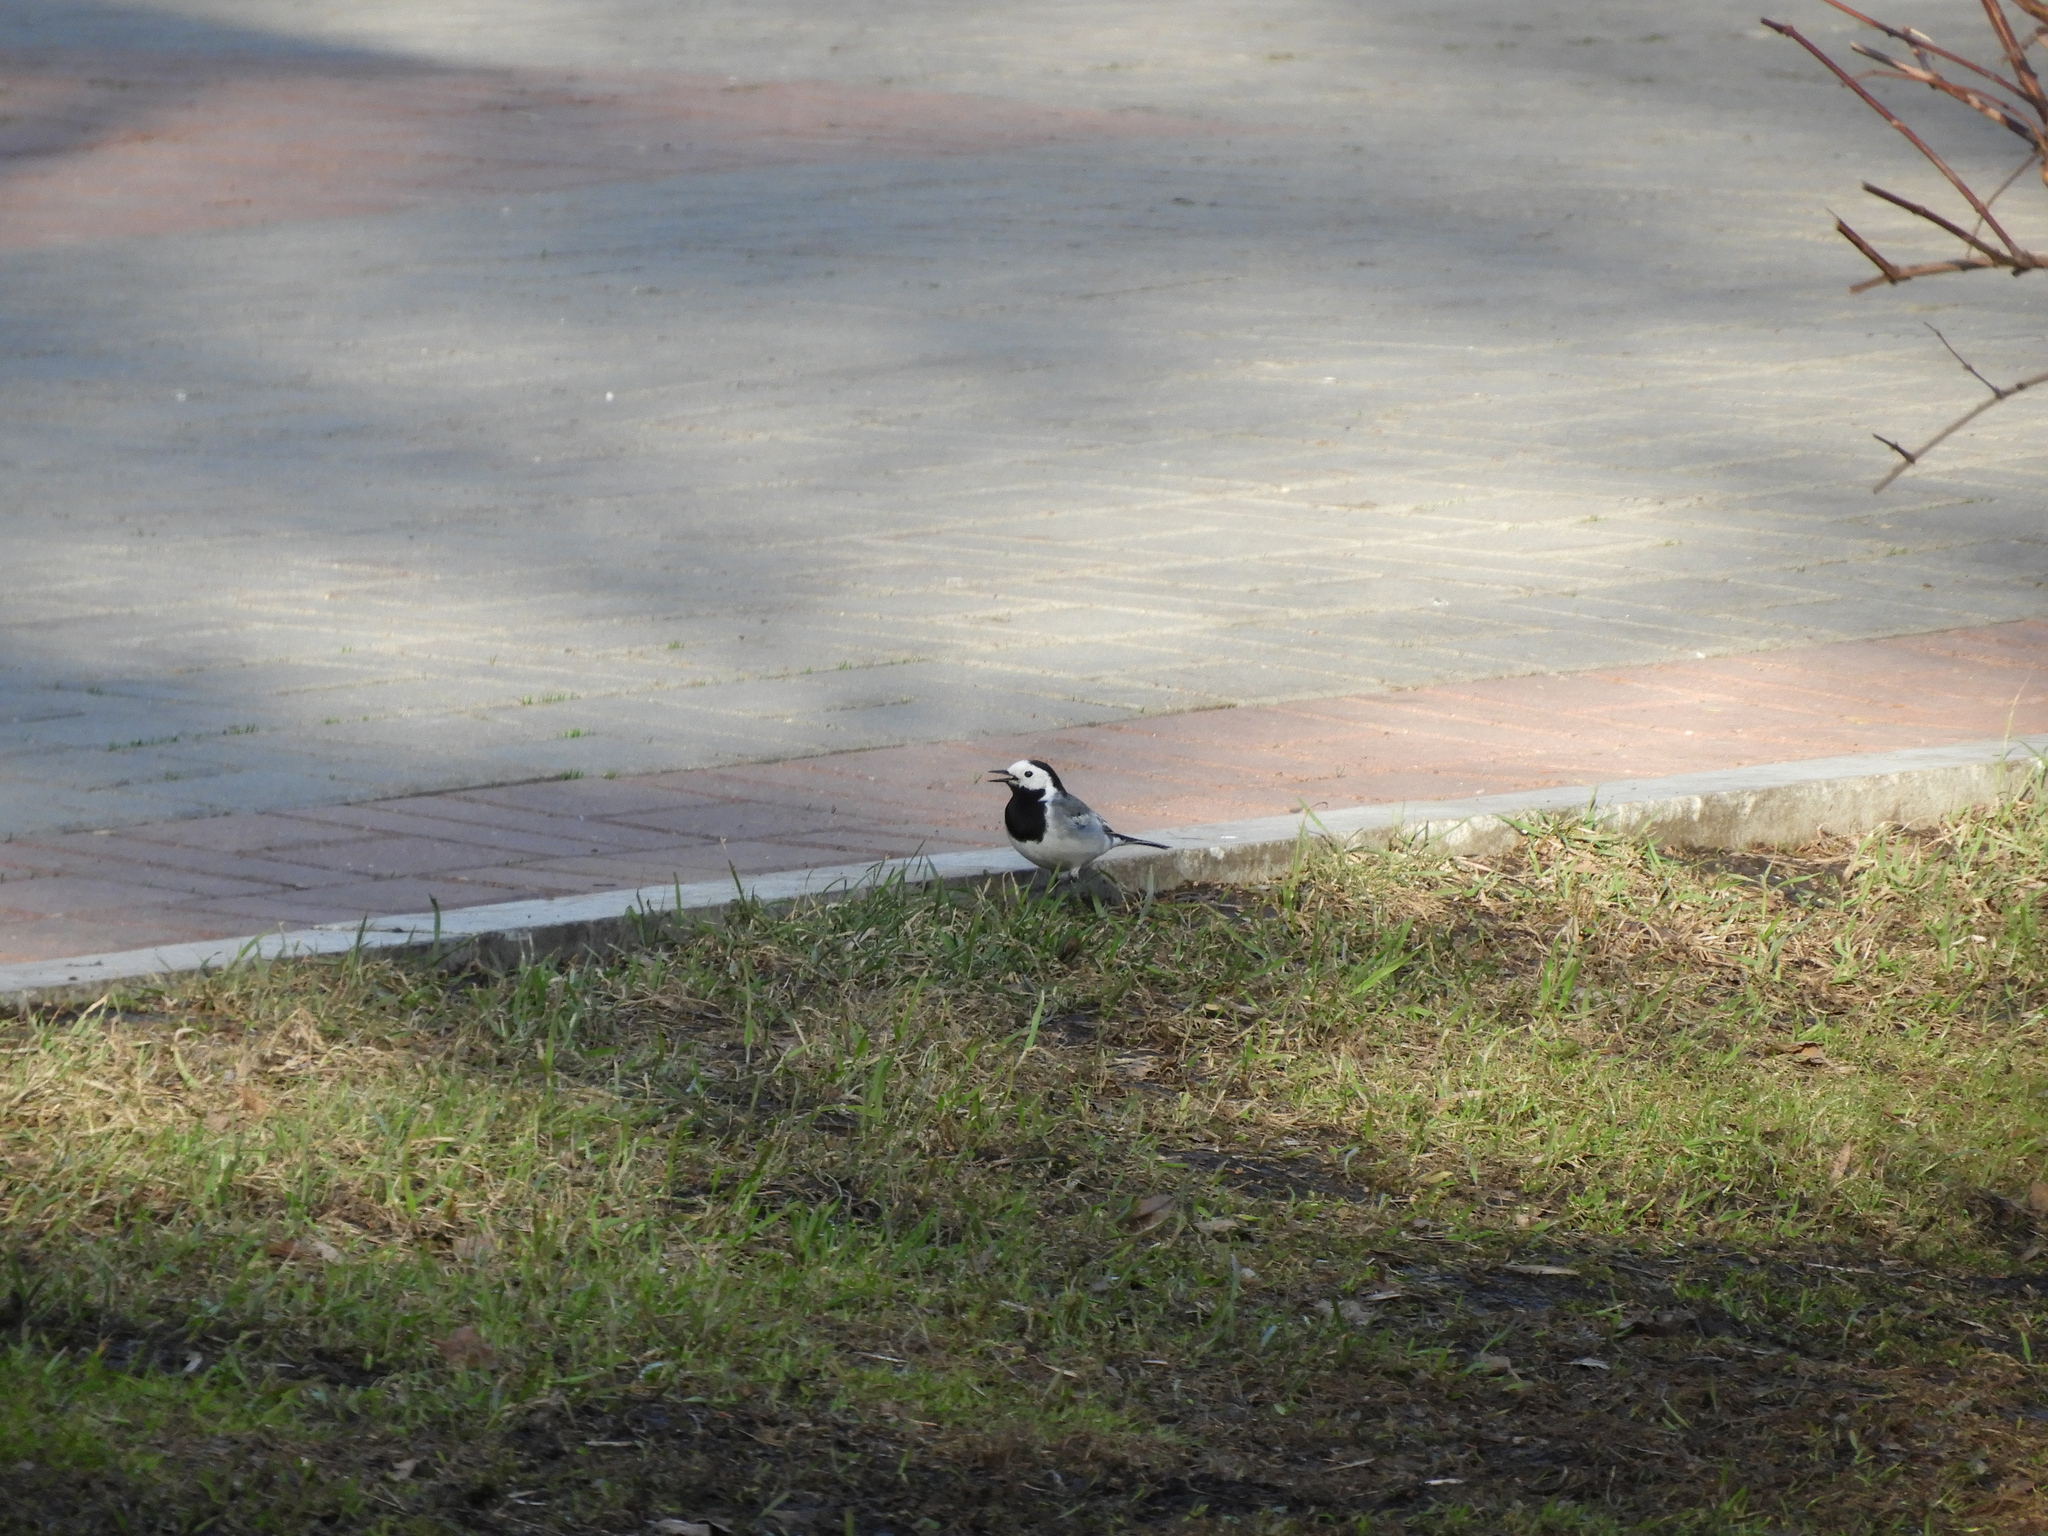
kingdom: Animalia
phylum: Chordata
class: Aves
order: Passeriformes
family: Motacillidae
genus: Motacilla
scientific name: Motacilla alba
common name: White wagtail
